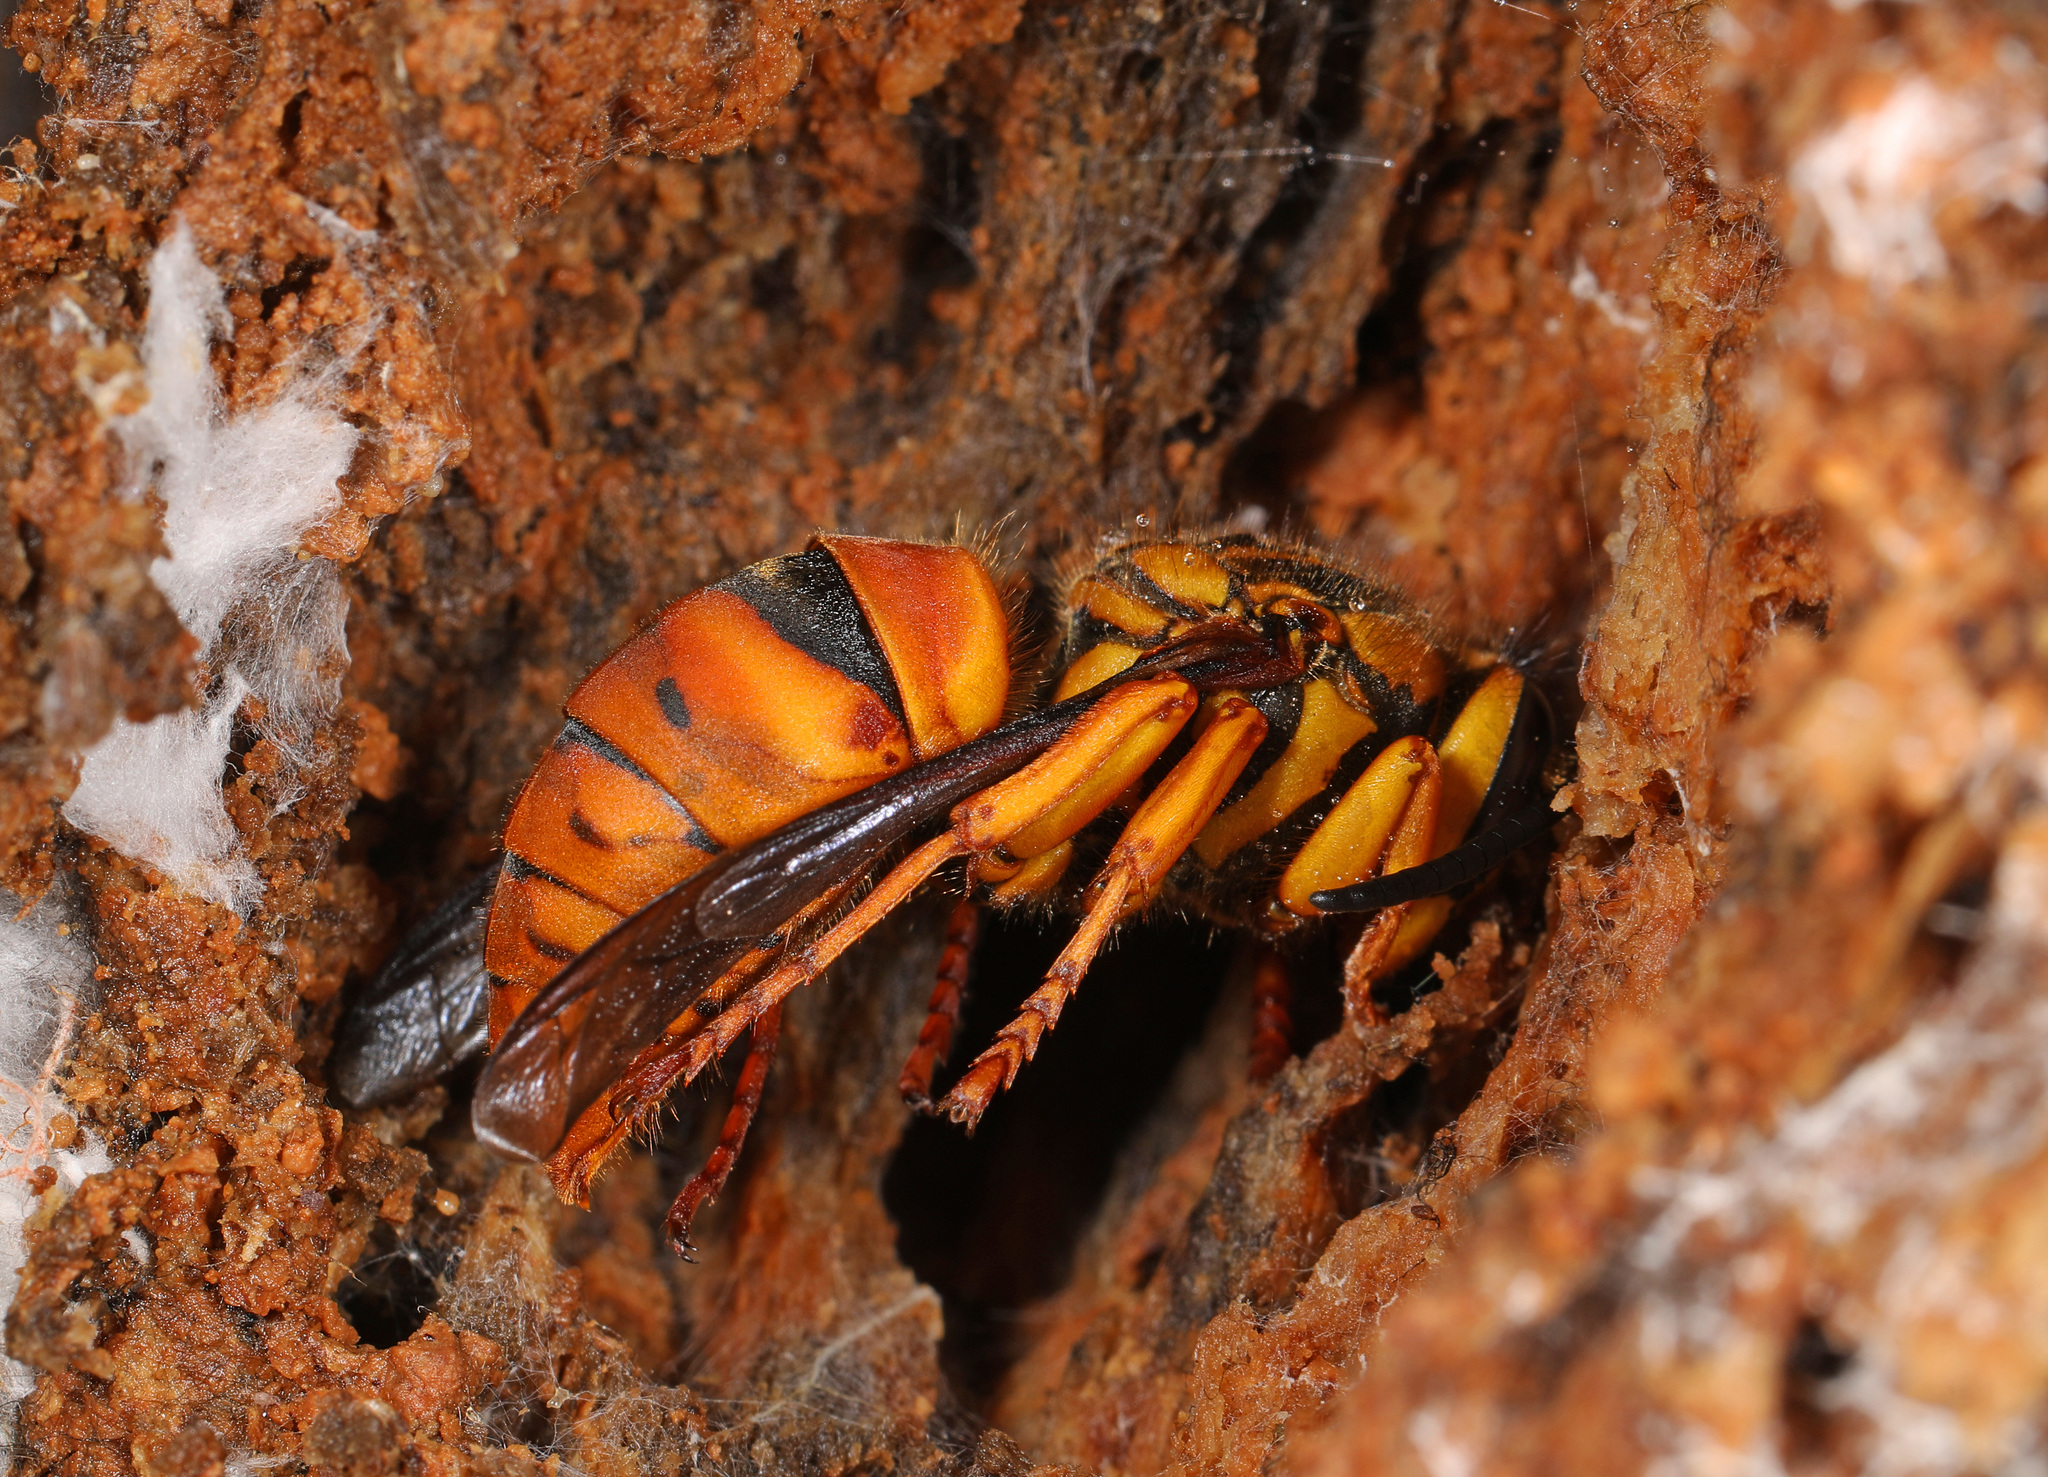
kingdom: Animalia
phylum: Arthropoda
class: Insecta
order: Hymenoptera
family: Vespidae
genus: Vespula
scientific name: Vespula squamosa
